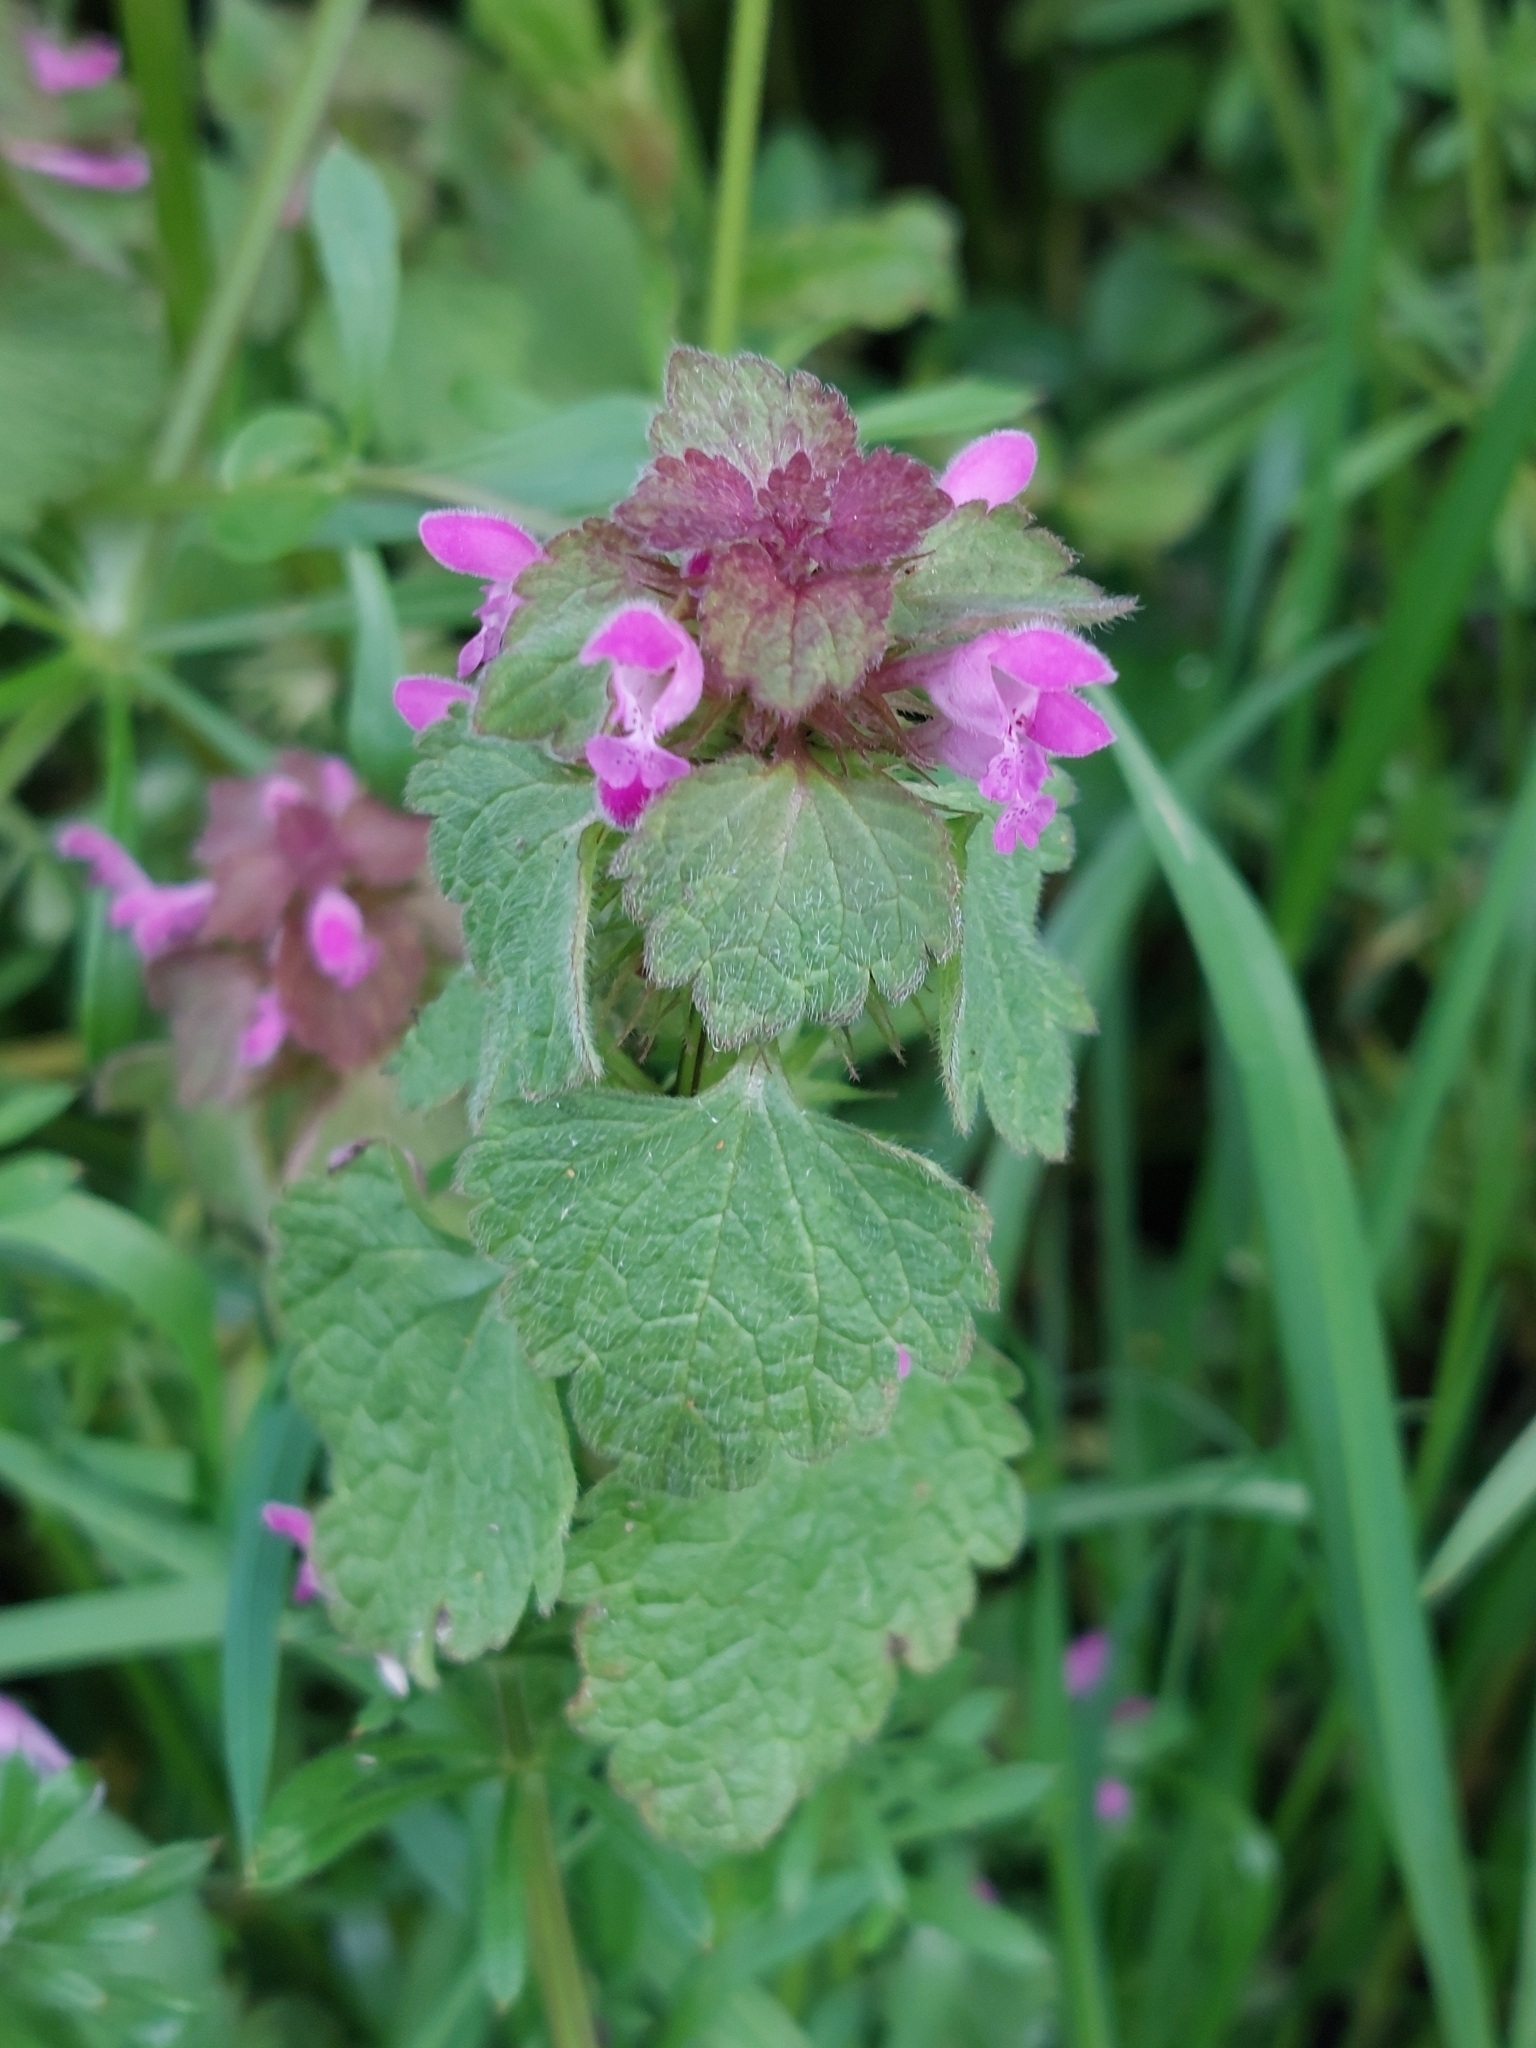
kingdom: Plantae
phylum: Tracheophyta
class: Magnoliopsida
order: Lamiales
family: Lamiaceae
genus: Lamium
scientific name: Lamium purpureum
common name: Red dead-nettle
